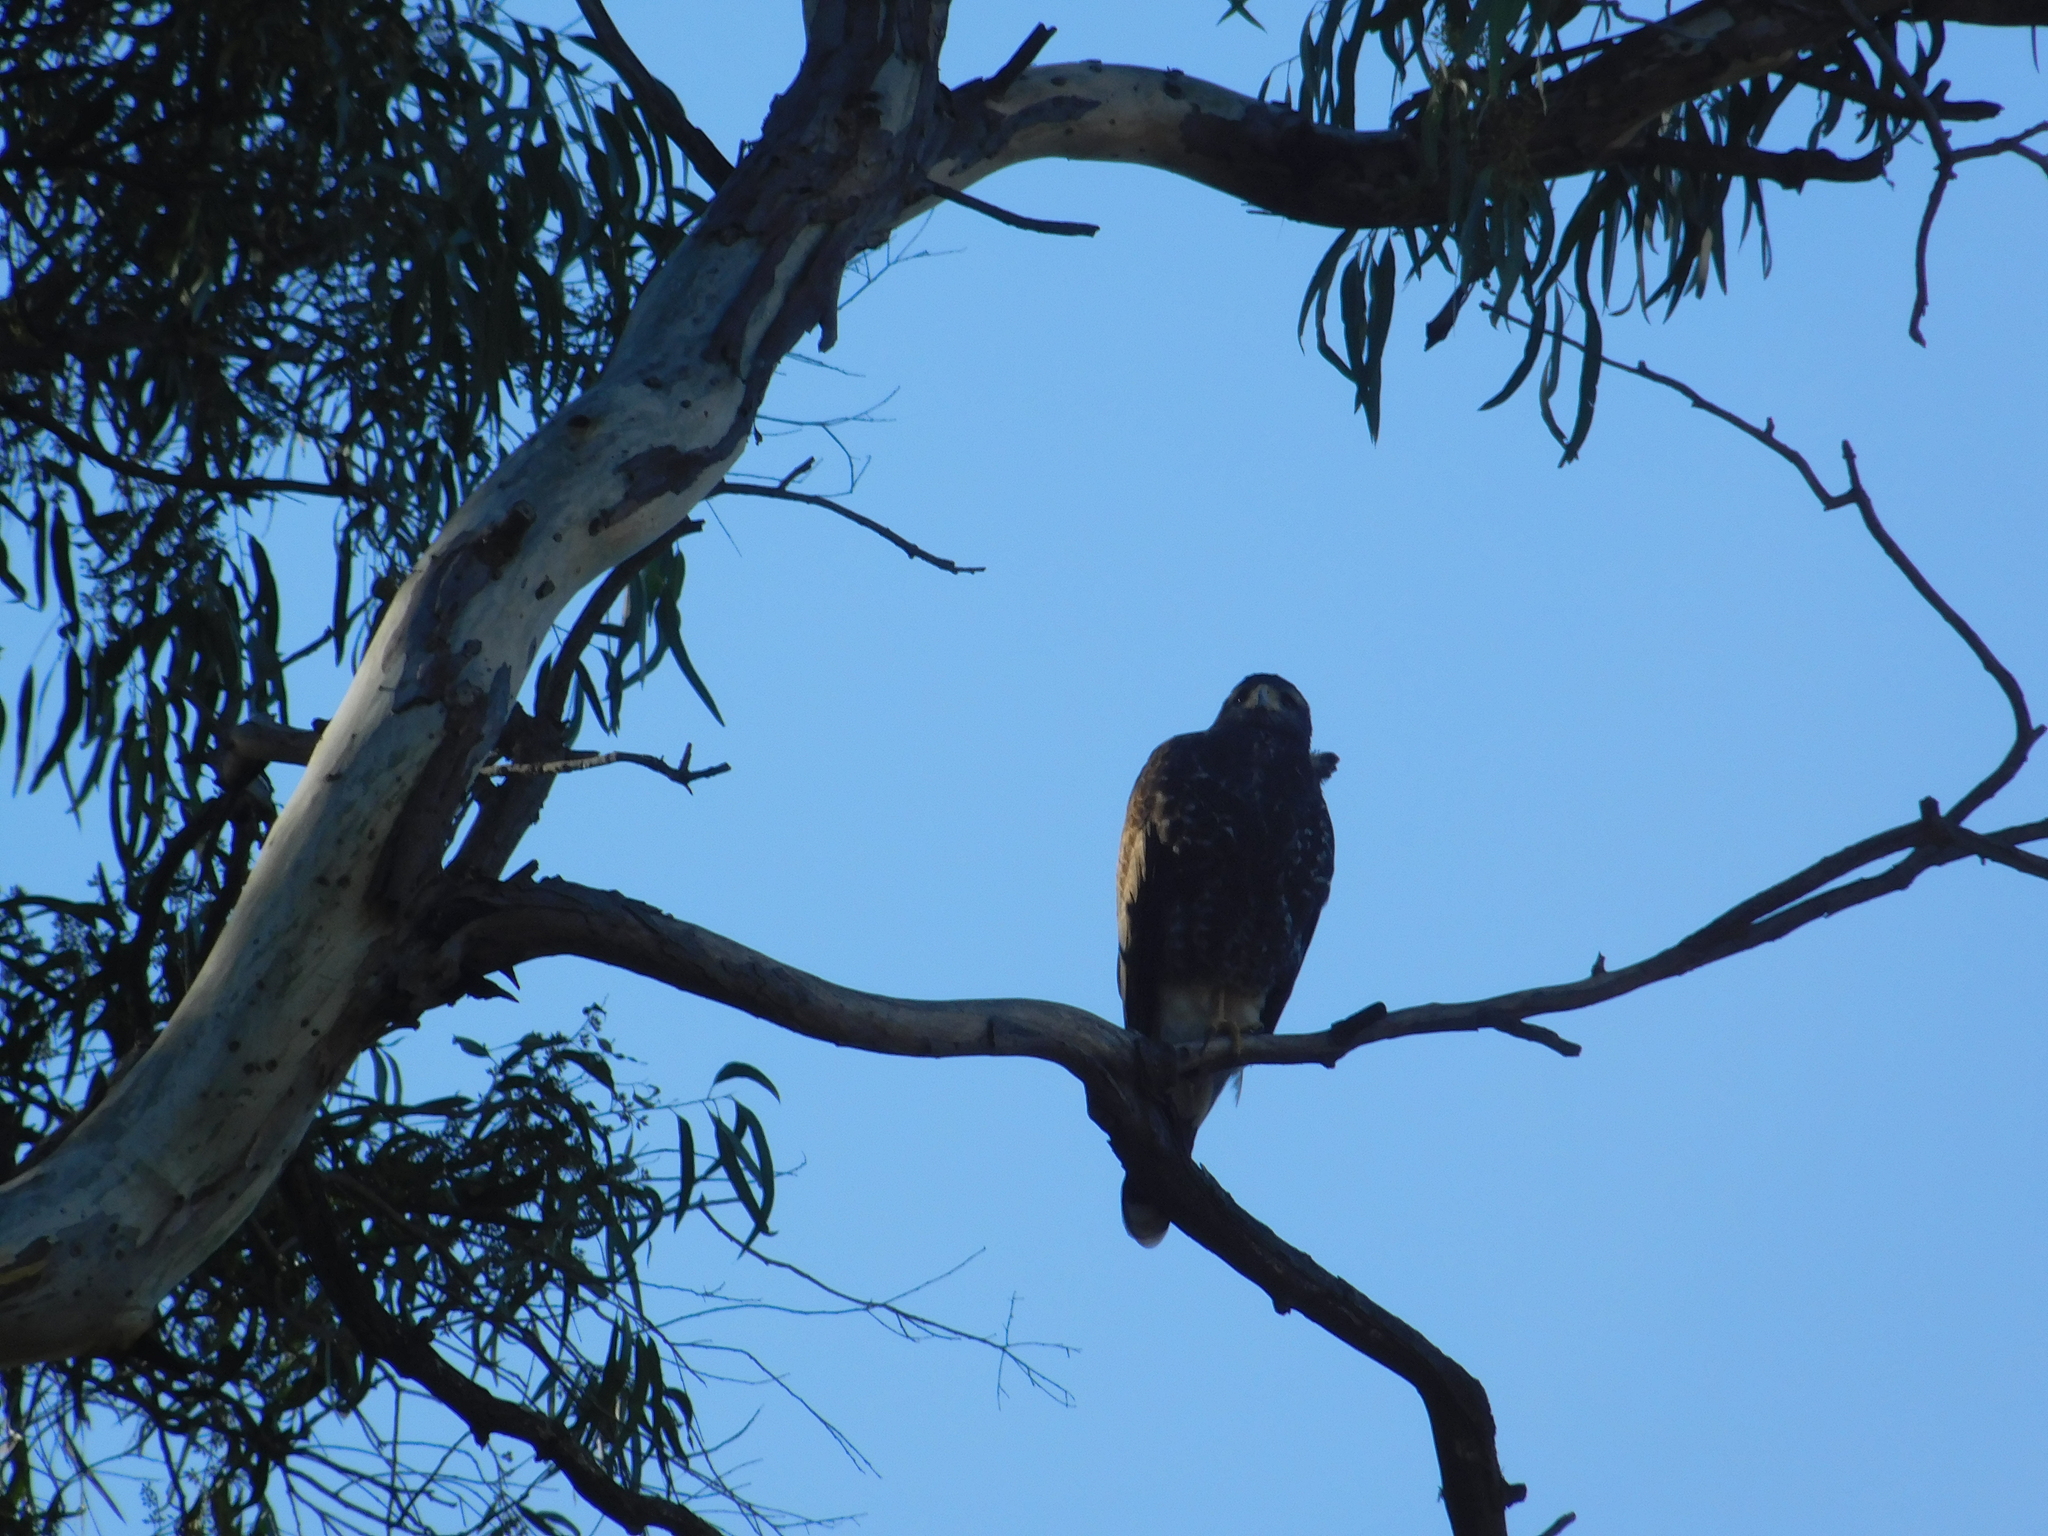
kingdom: Animalia
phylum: Chordata
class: Aves
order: Accipitriformes
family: Accipitridae
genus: Parabuteo
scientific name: Parabuteo unicinctus
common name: Harris's hawk
